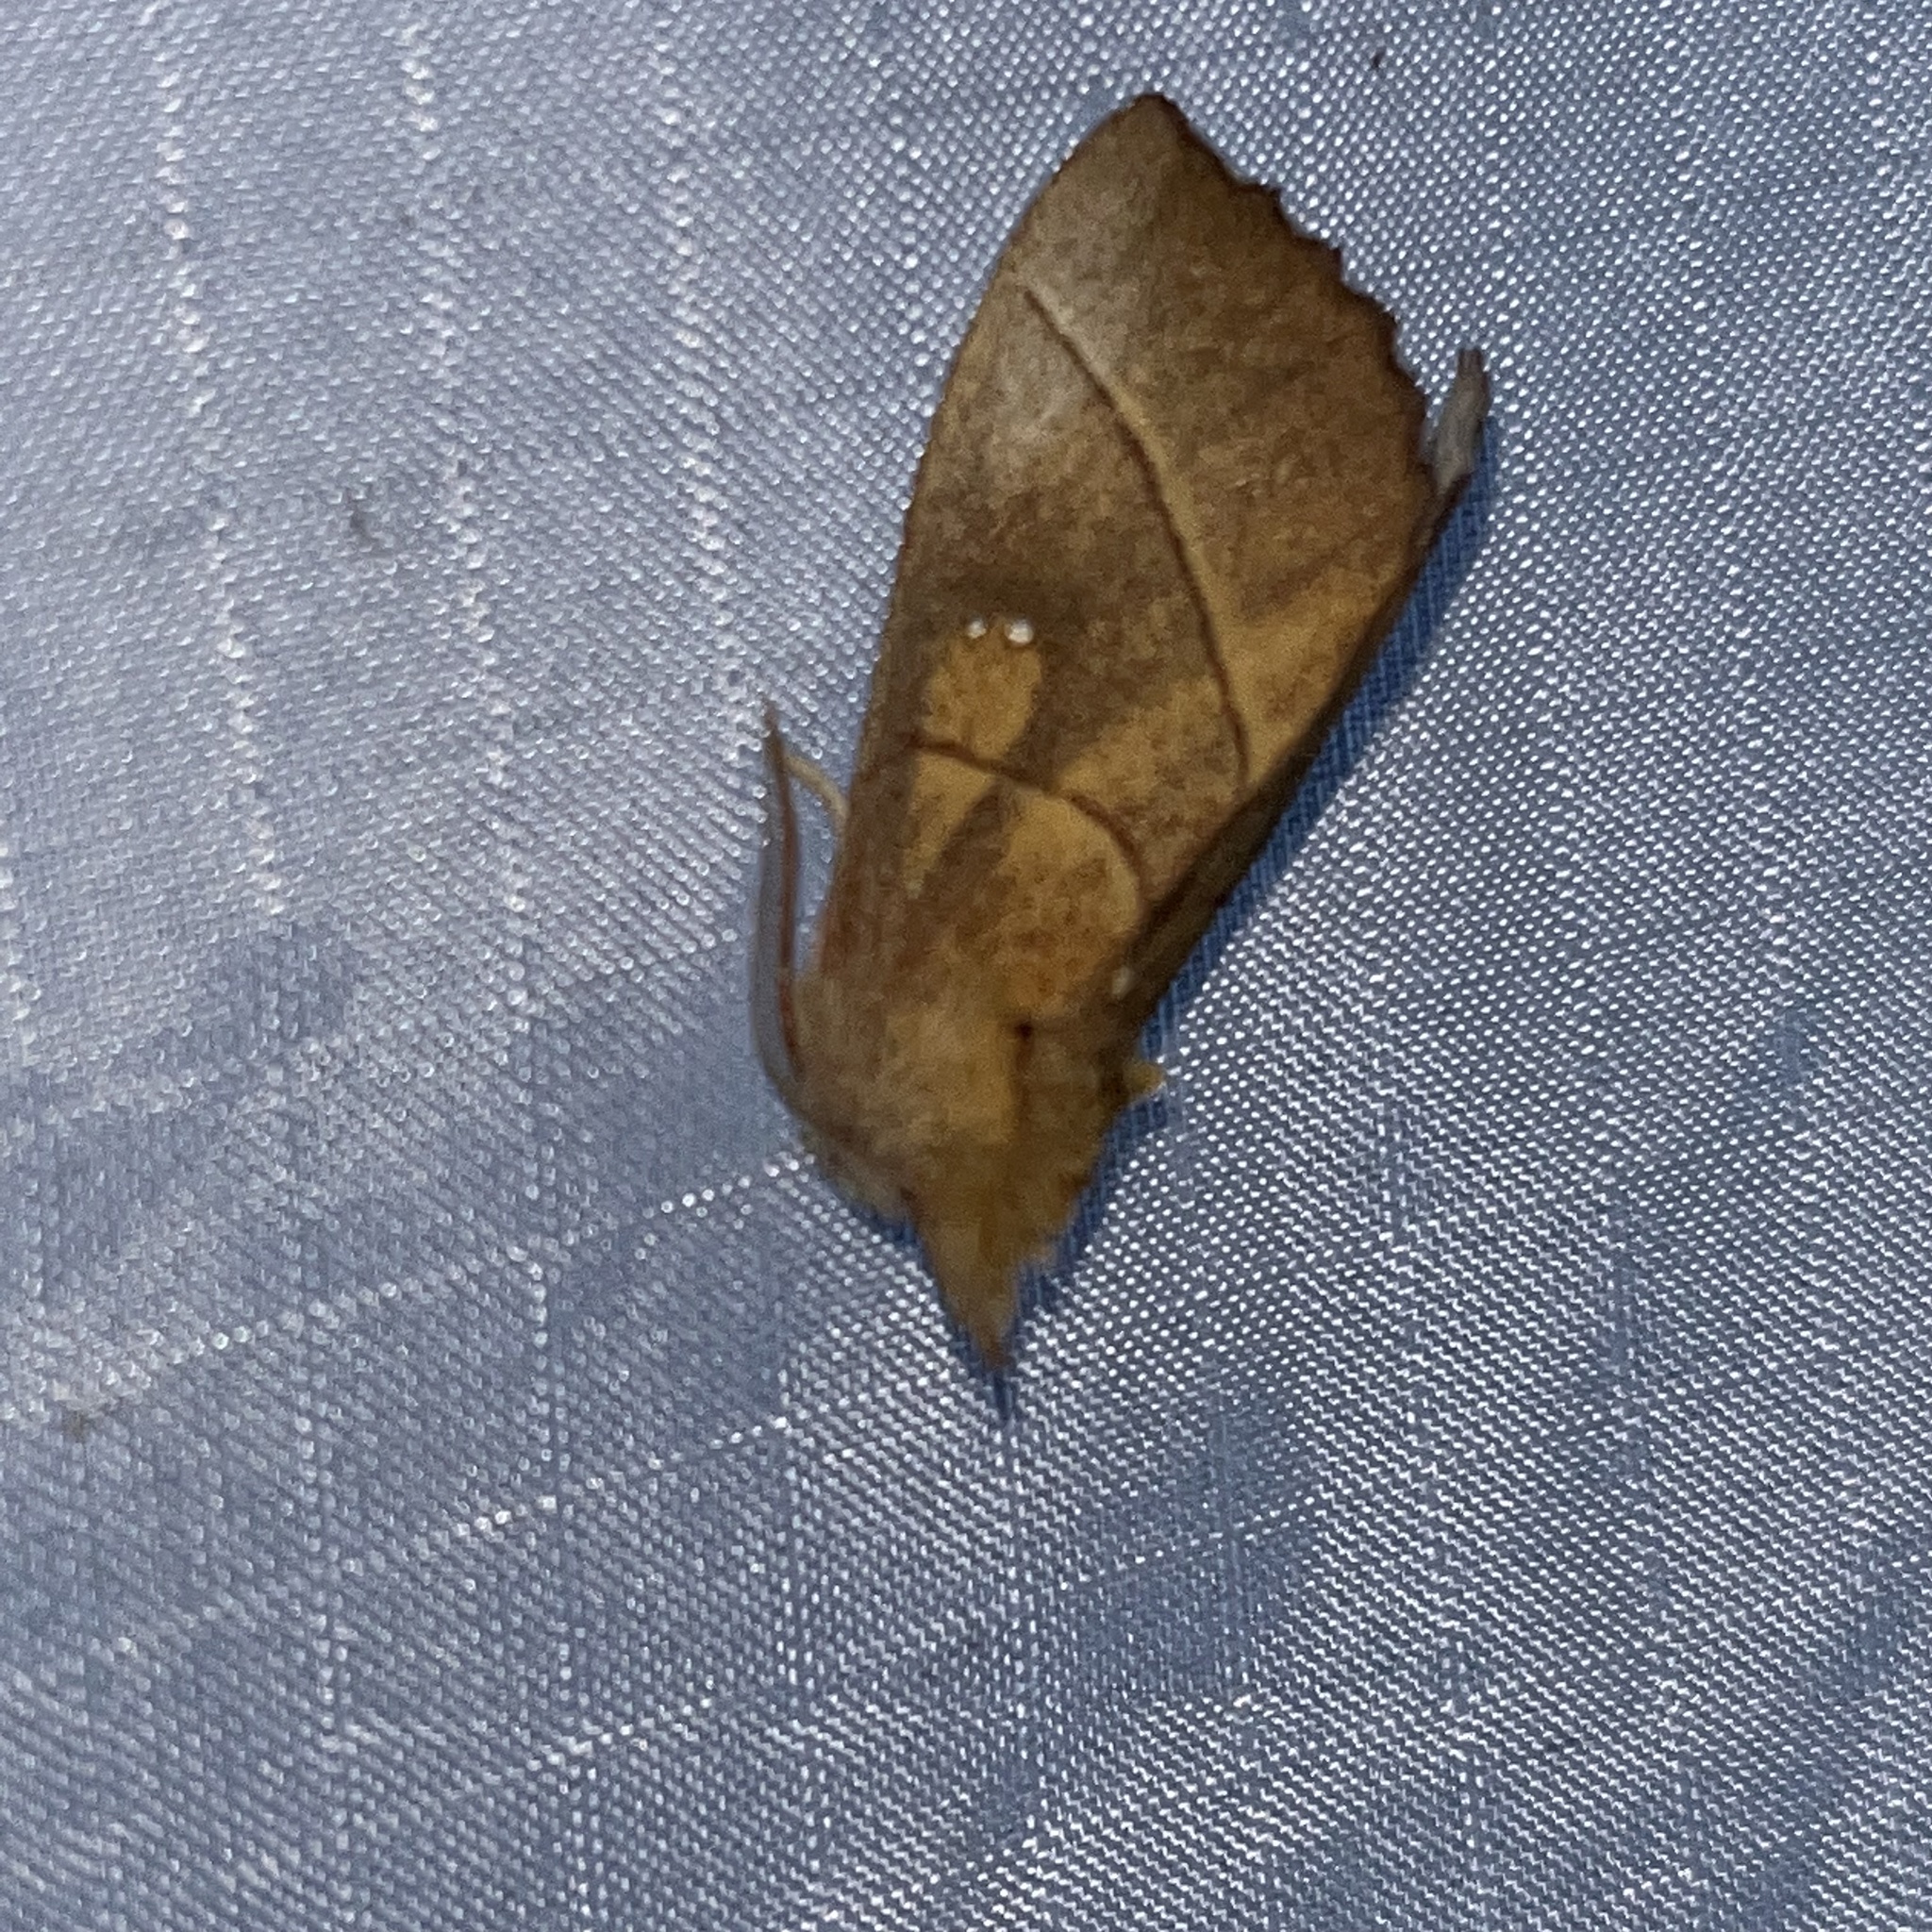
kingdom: Animalia
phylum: Arthropoda
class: Insecta
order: Lepidoptera
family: Notodontidae
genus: Nadata
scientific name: Nadata gibbosa
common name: White-dotted prominent
